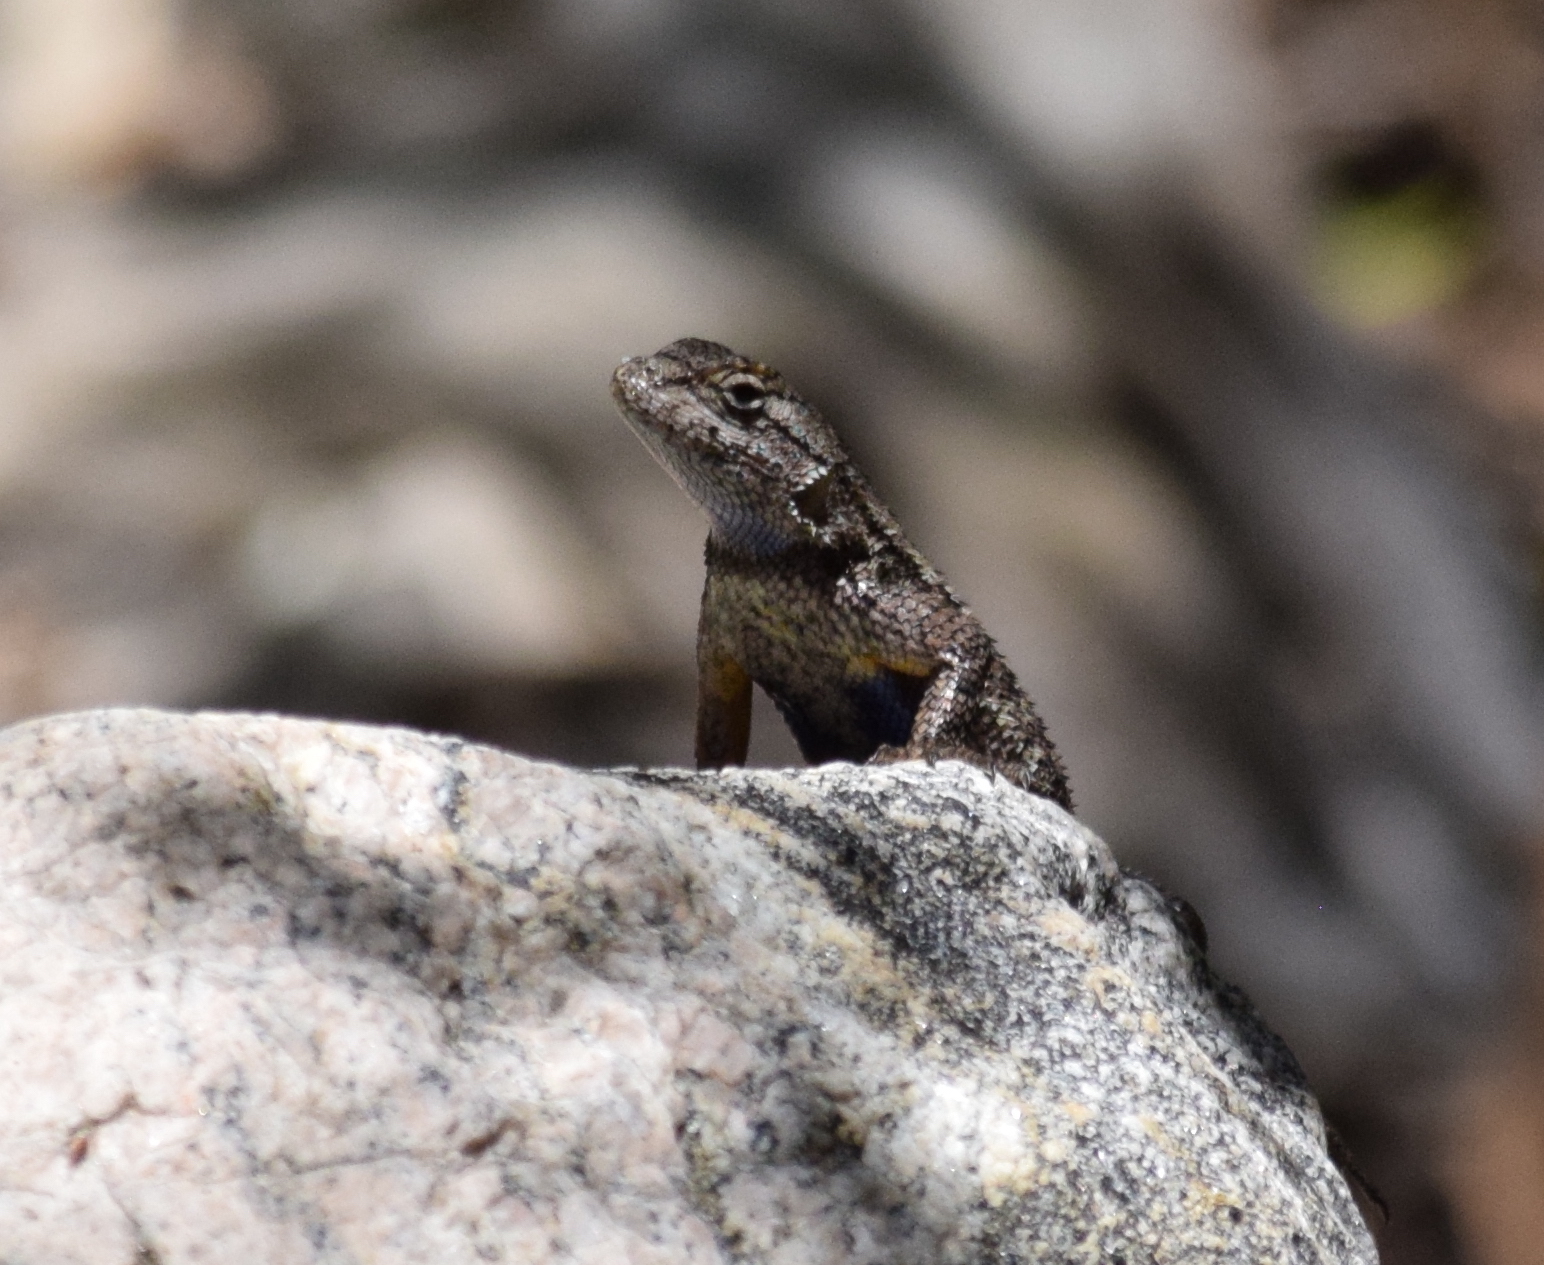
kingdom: Animalia
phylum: Chordata
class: Squamata
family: Phrynosomatidae
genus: Sceloporus
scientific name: Sceloporus occidentalis
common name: Western fence lizard
